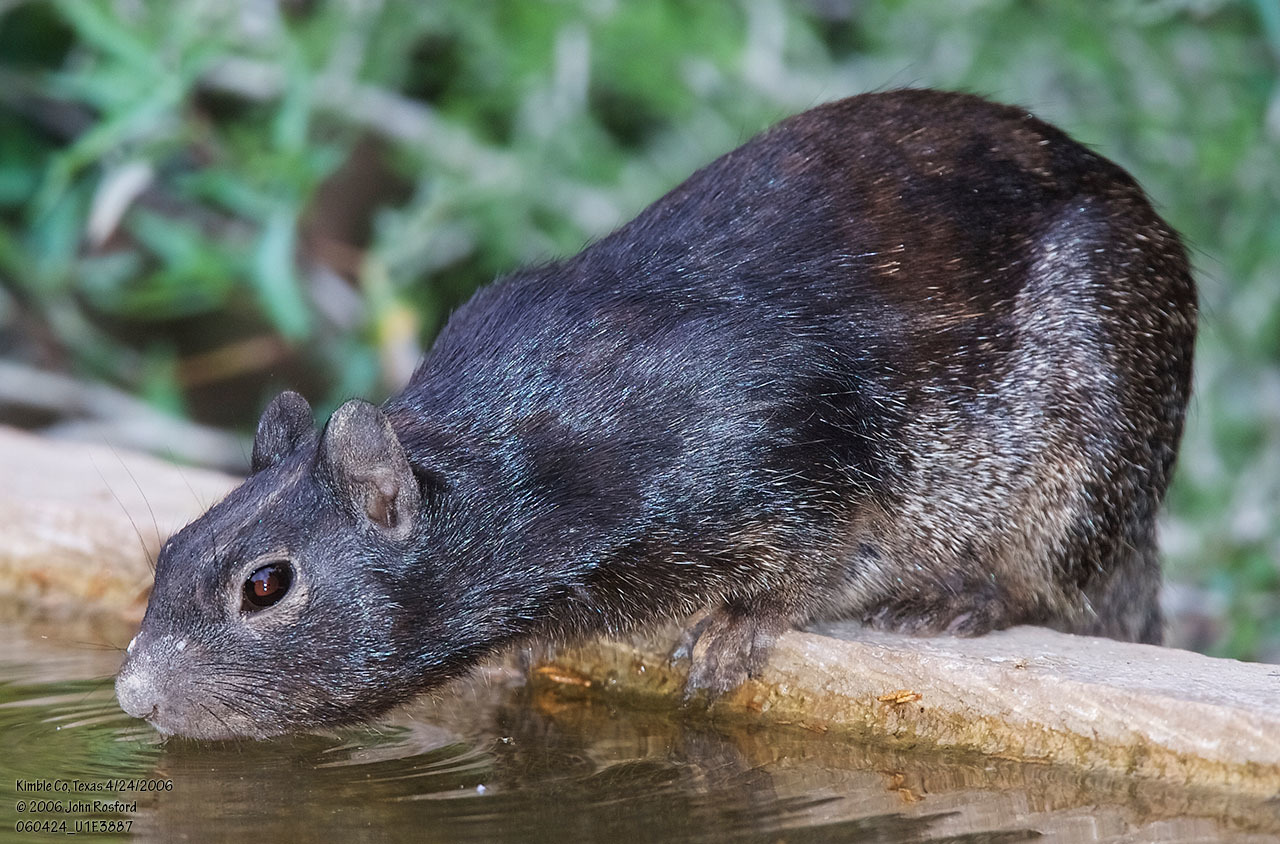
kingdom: Animalia
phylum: Chordata
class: Mammalia
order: Rodentia
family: Sciuridae
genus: Otospermophilus
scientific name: Otospermophilus variegatus
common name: Rock squirrel
